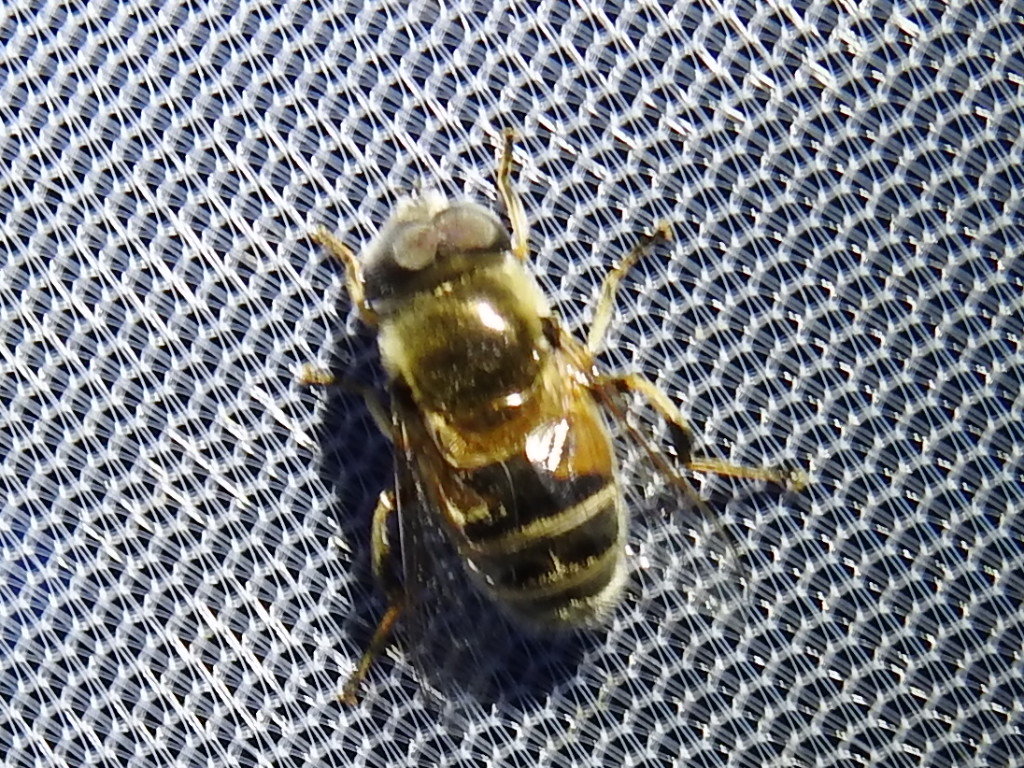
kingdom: Animalia
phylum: Arthropoda
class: Insecta
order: Diptera
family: Syrphidae
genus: Eristalis
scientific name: Eristalis stipator
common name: Yellow-shouldered drone fly
